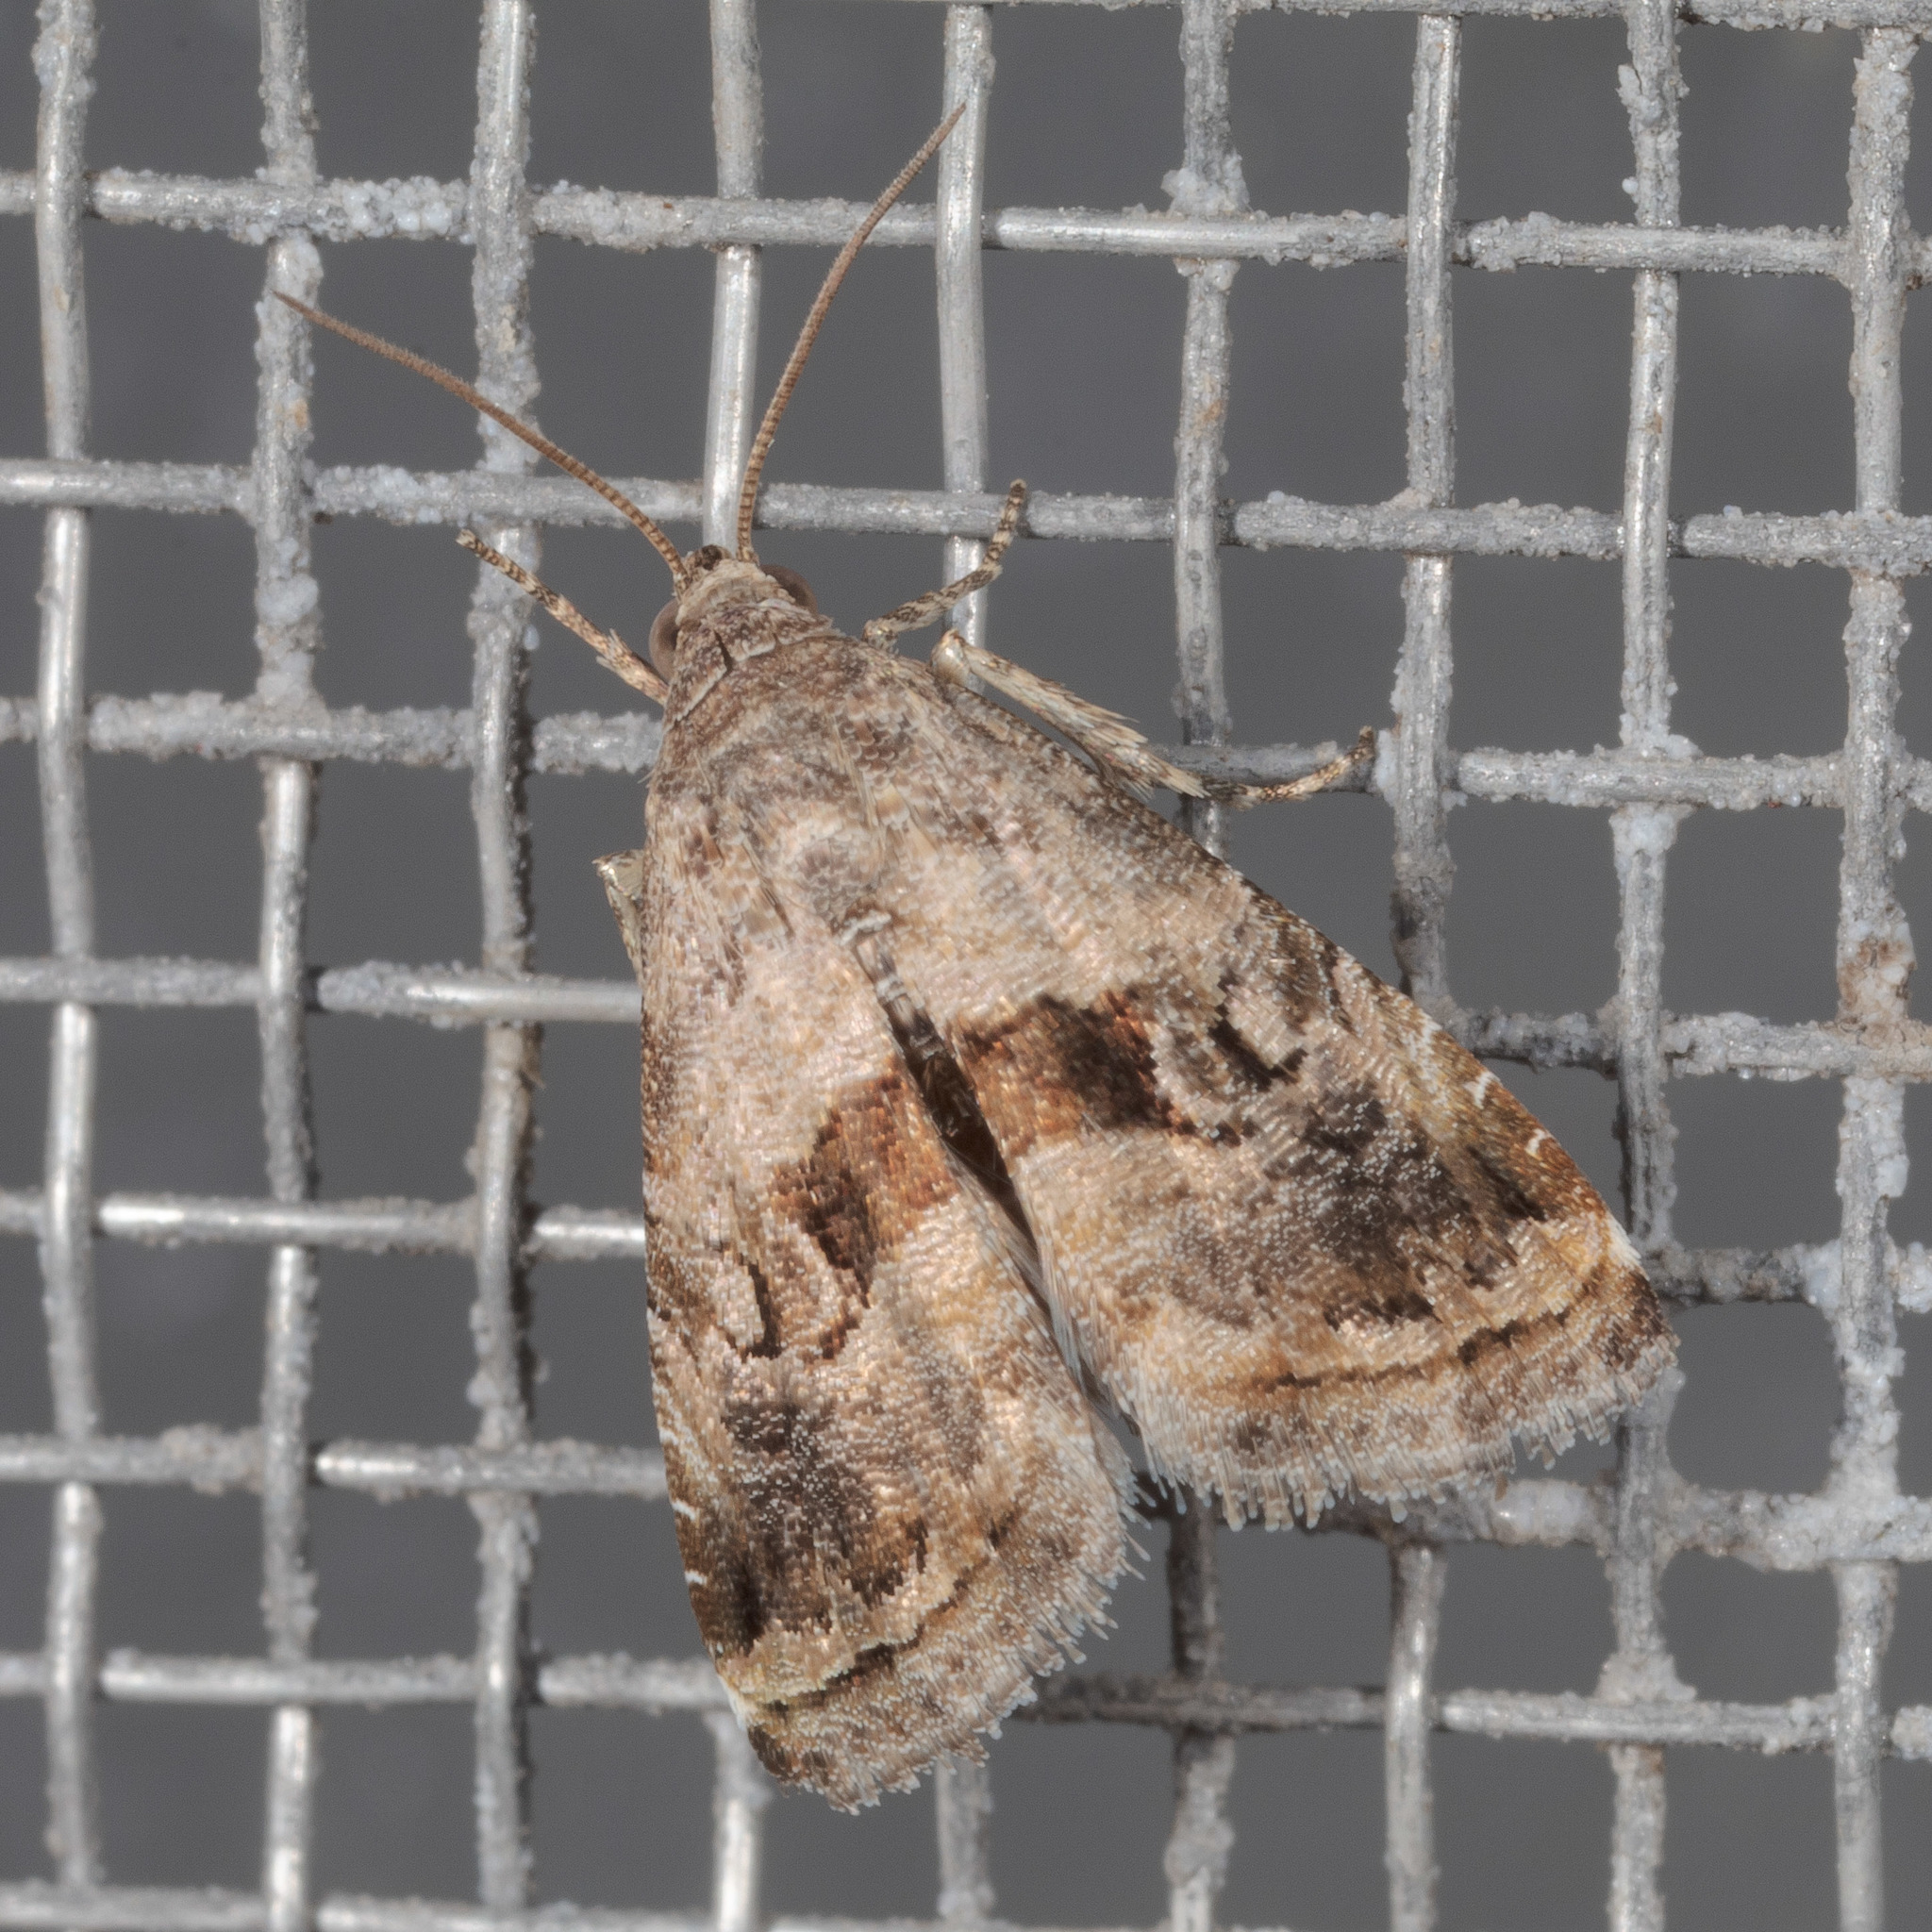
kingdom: Animalia
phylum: Arthropoda
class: Insecta
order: Lepidoptera
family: Noctuidae
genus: Tripudia
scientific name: Tripudia quadrifera
